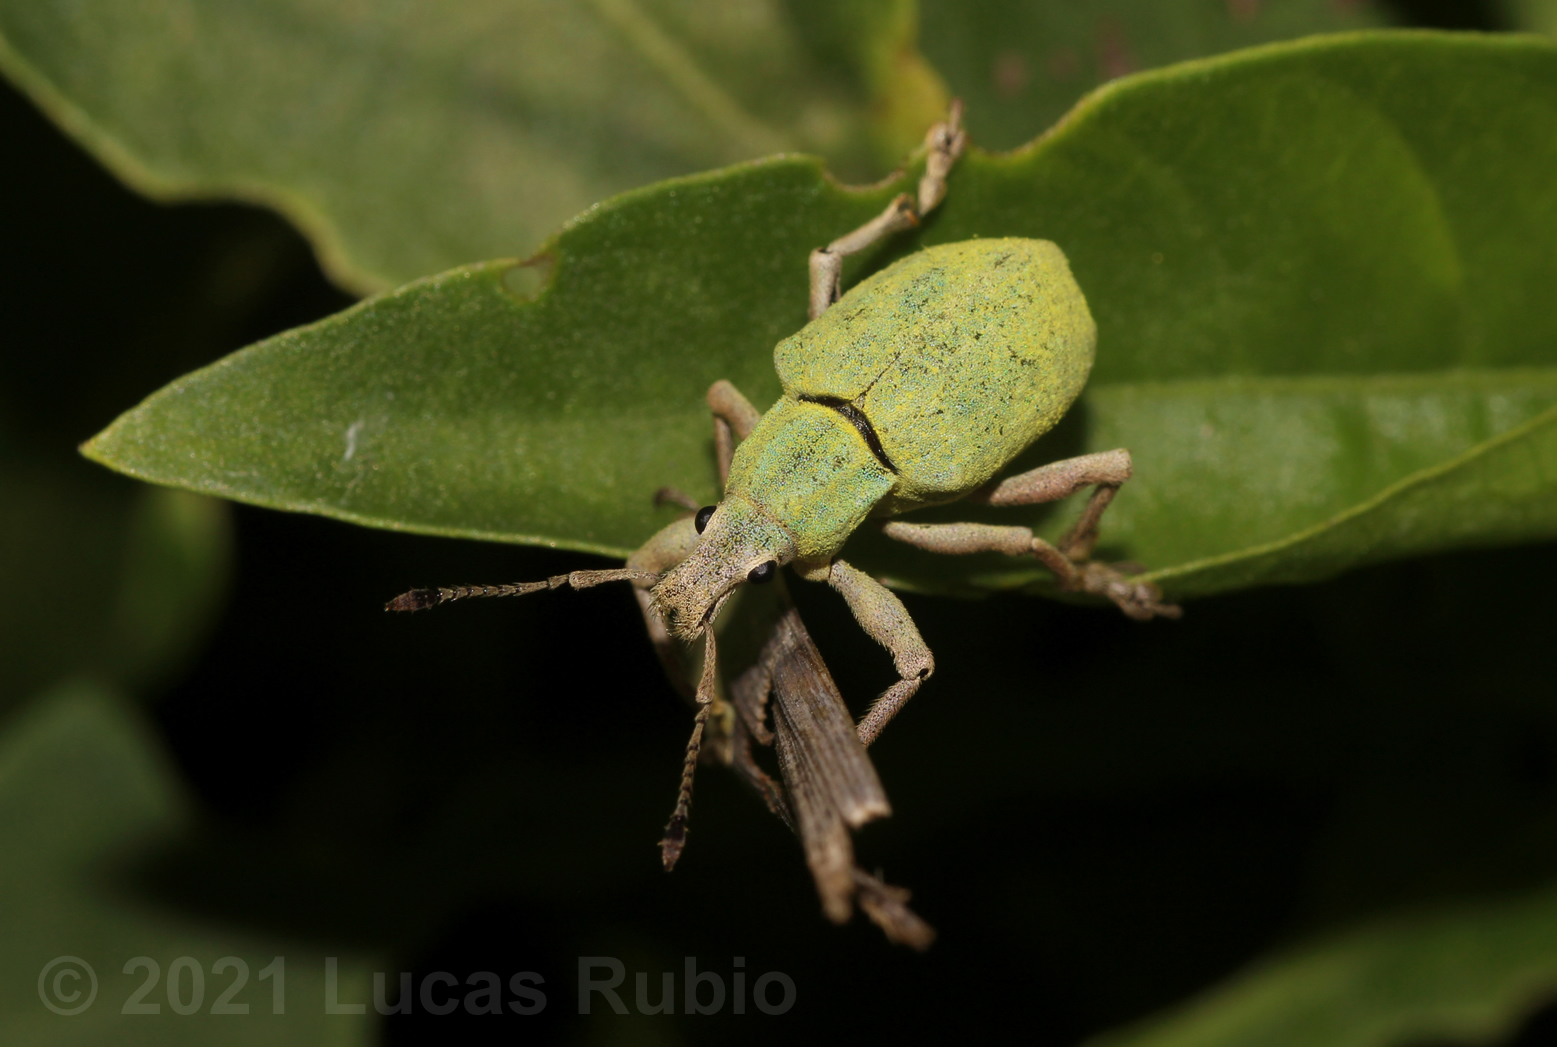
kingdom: Animalia
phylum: Arthropoda
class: Insecta
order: Coleoptera
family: Curculionidae
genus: Cyrtomon
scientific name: Cyrtomon inhalatus
